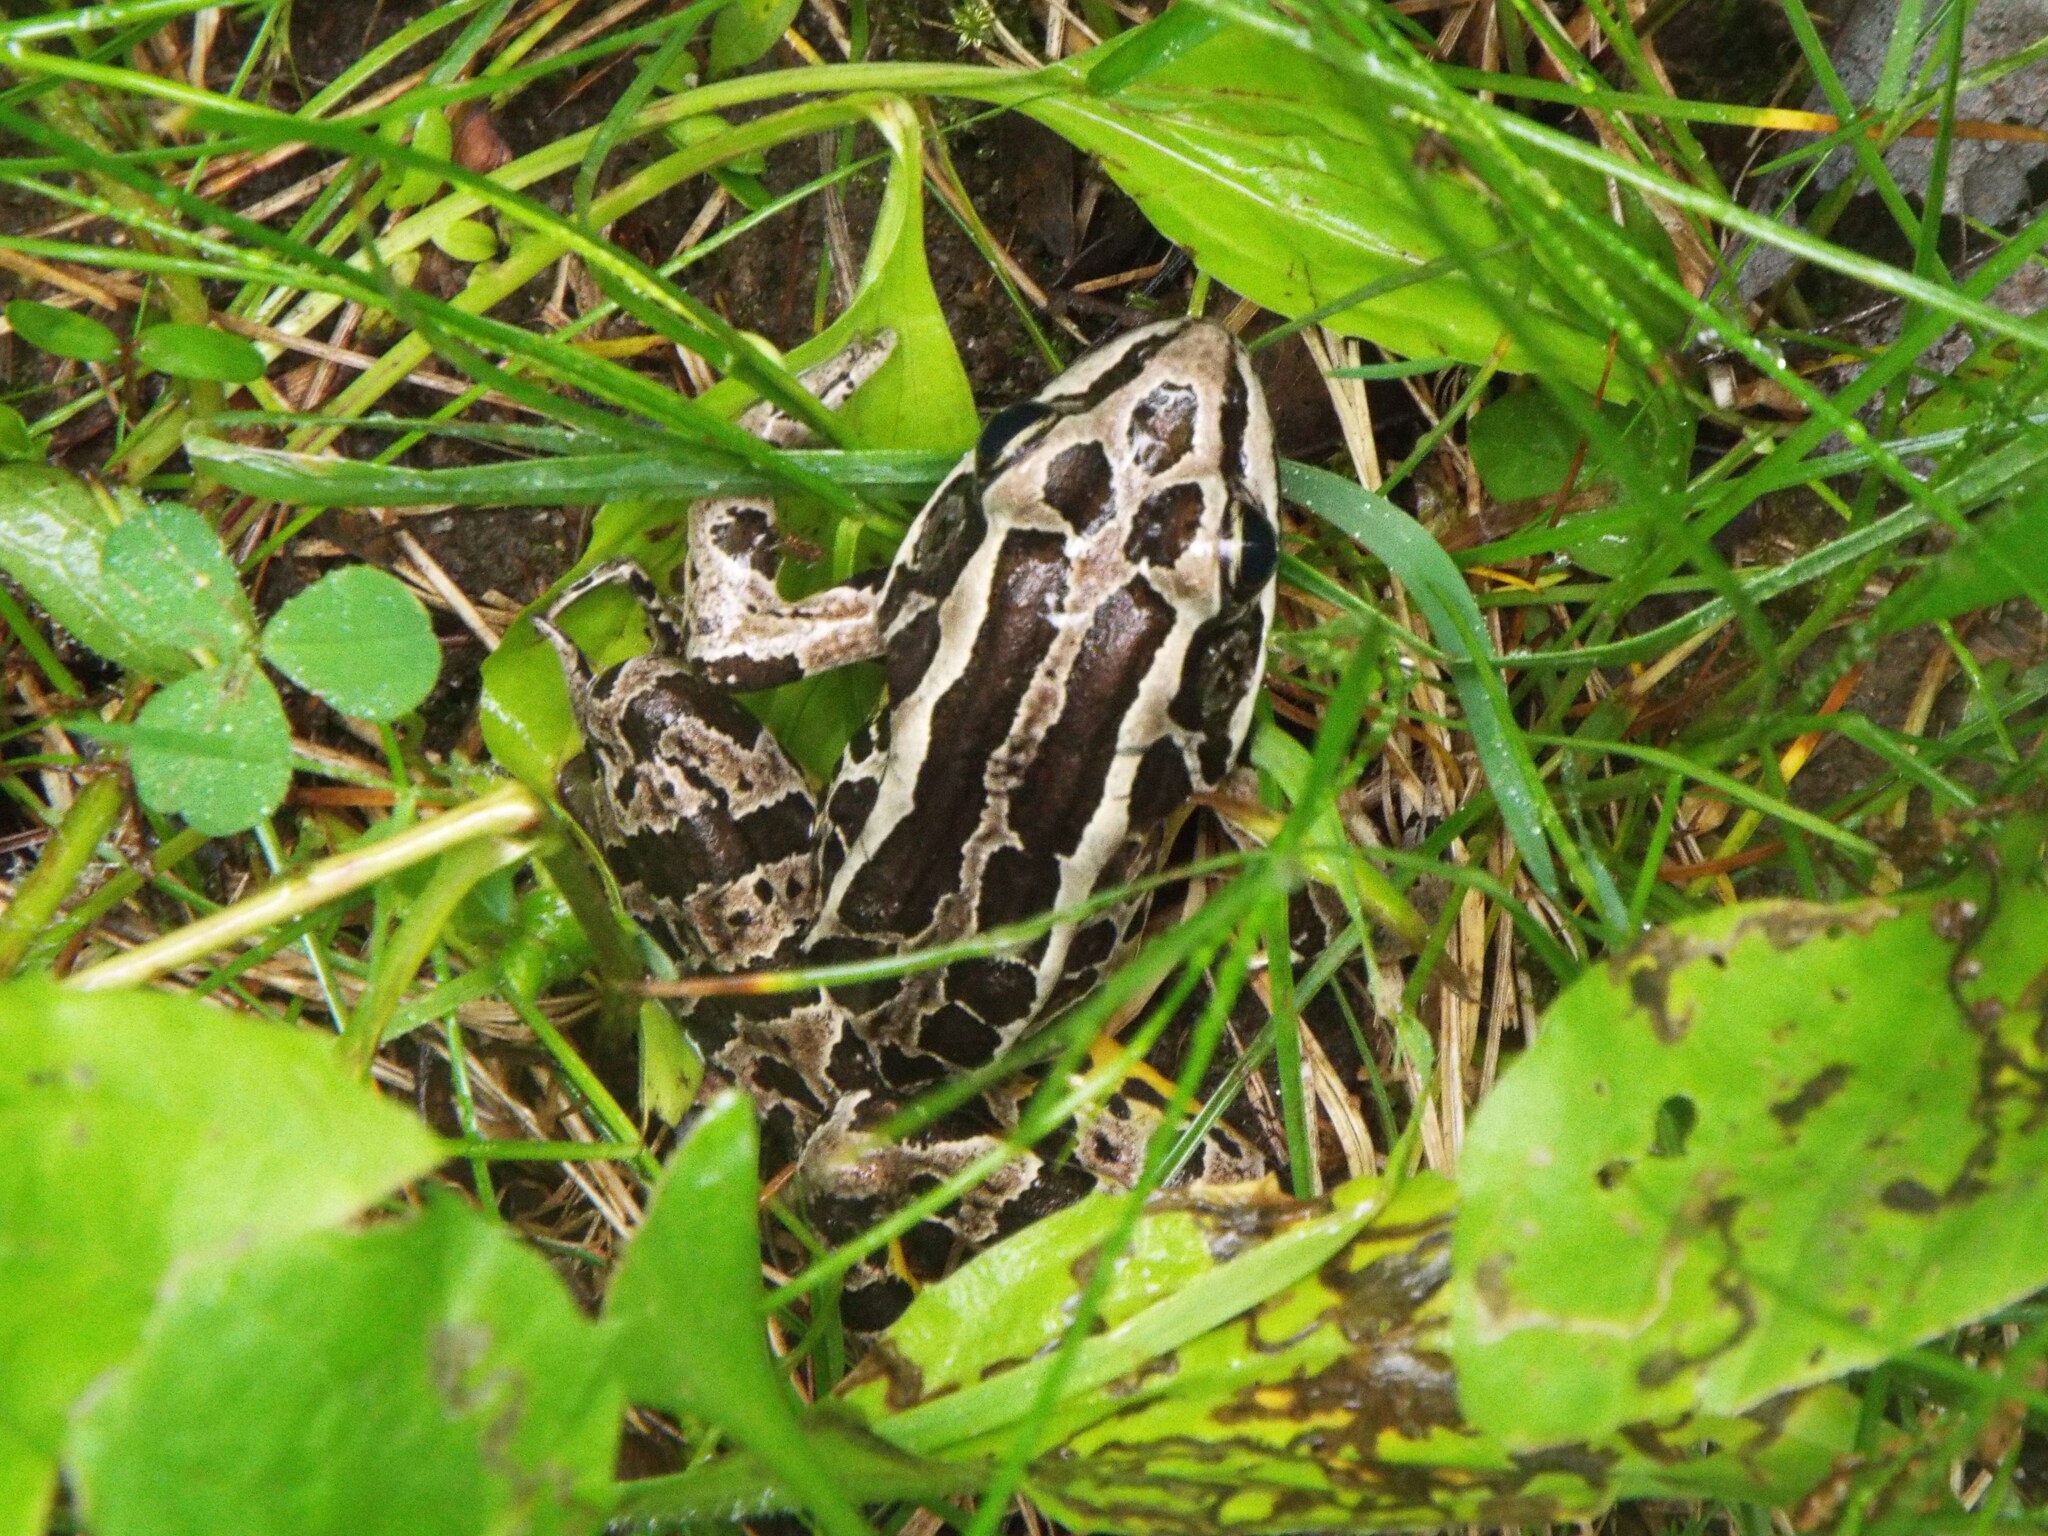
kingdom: Animalia
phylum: Chordata
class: Amphibia
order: Anura
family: Ranidae
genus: Lithobates
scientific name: Lithobates palustris
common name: Pickerel frog
